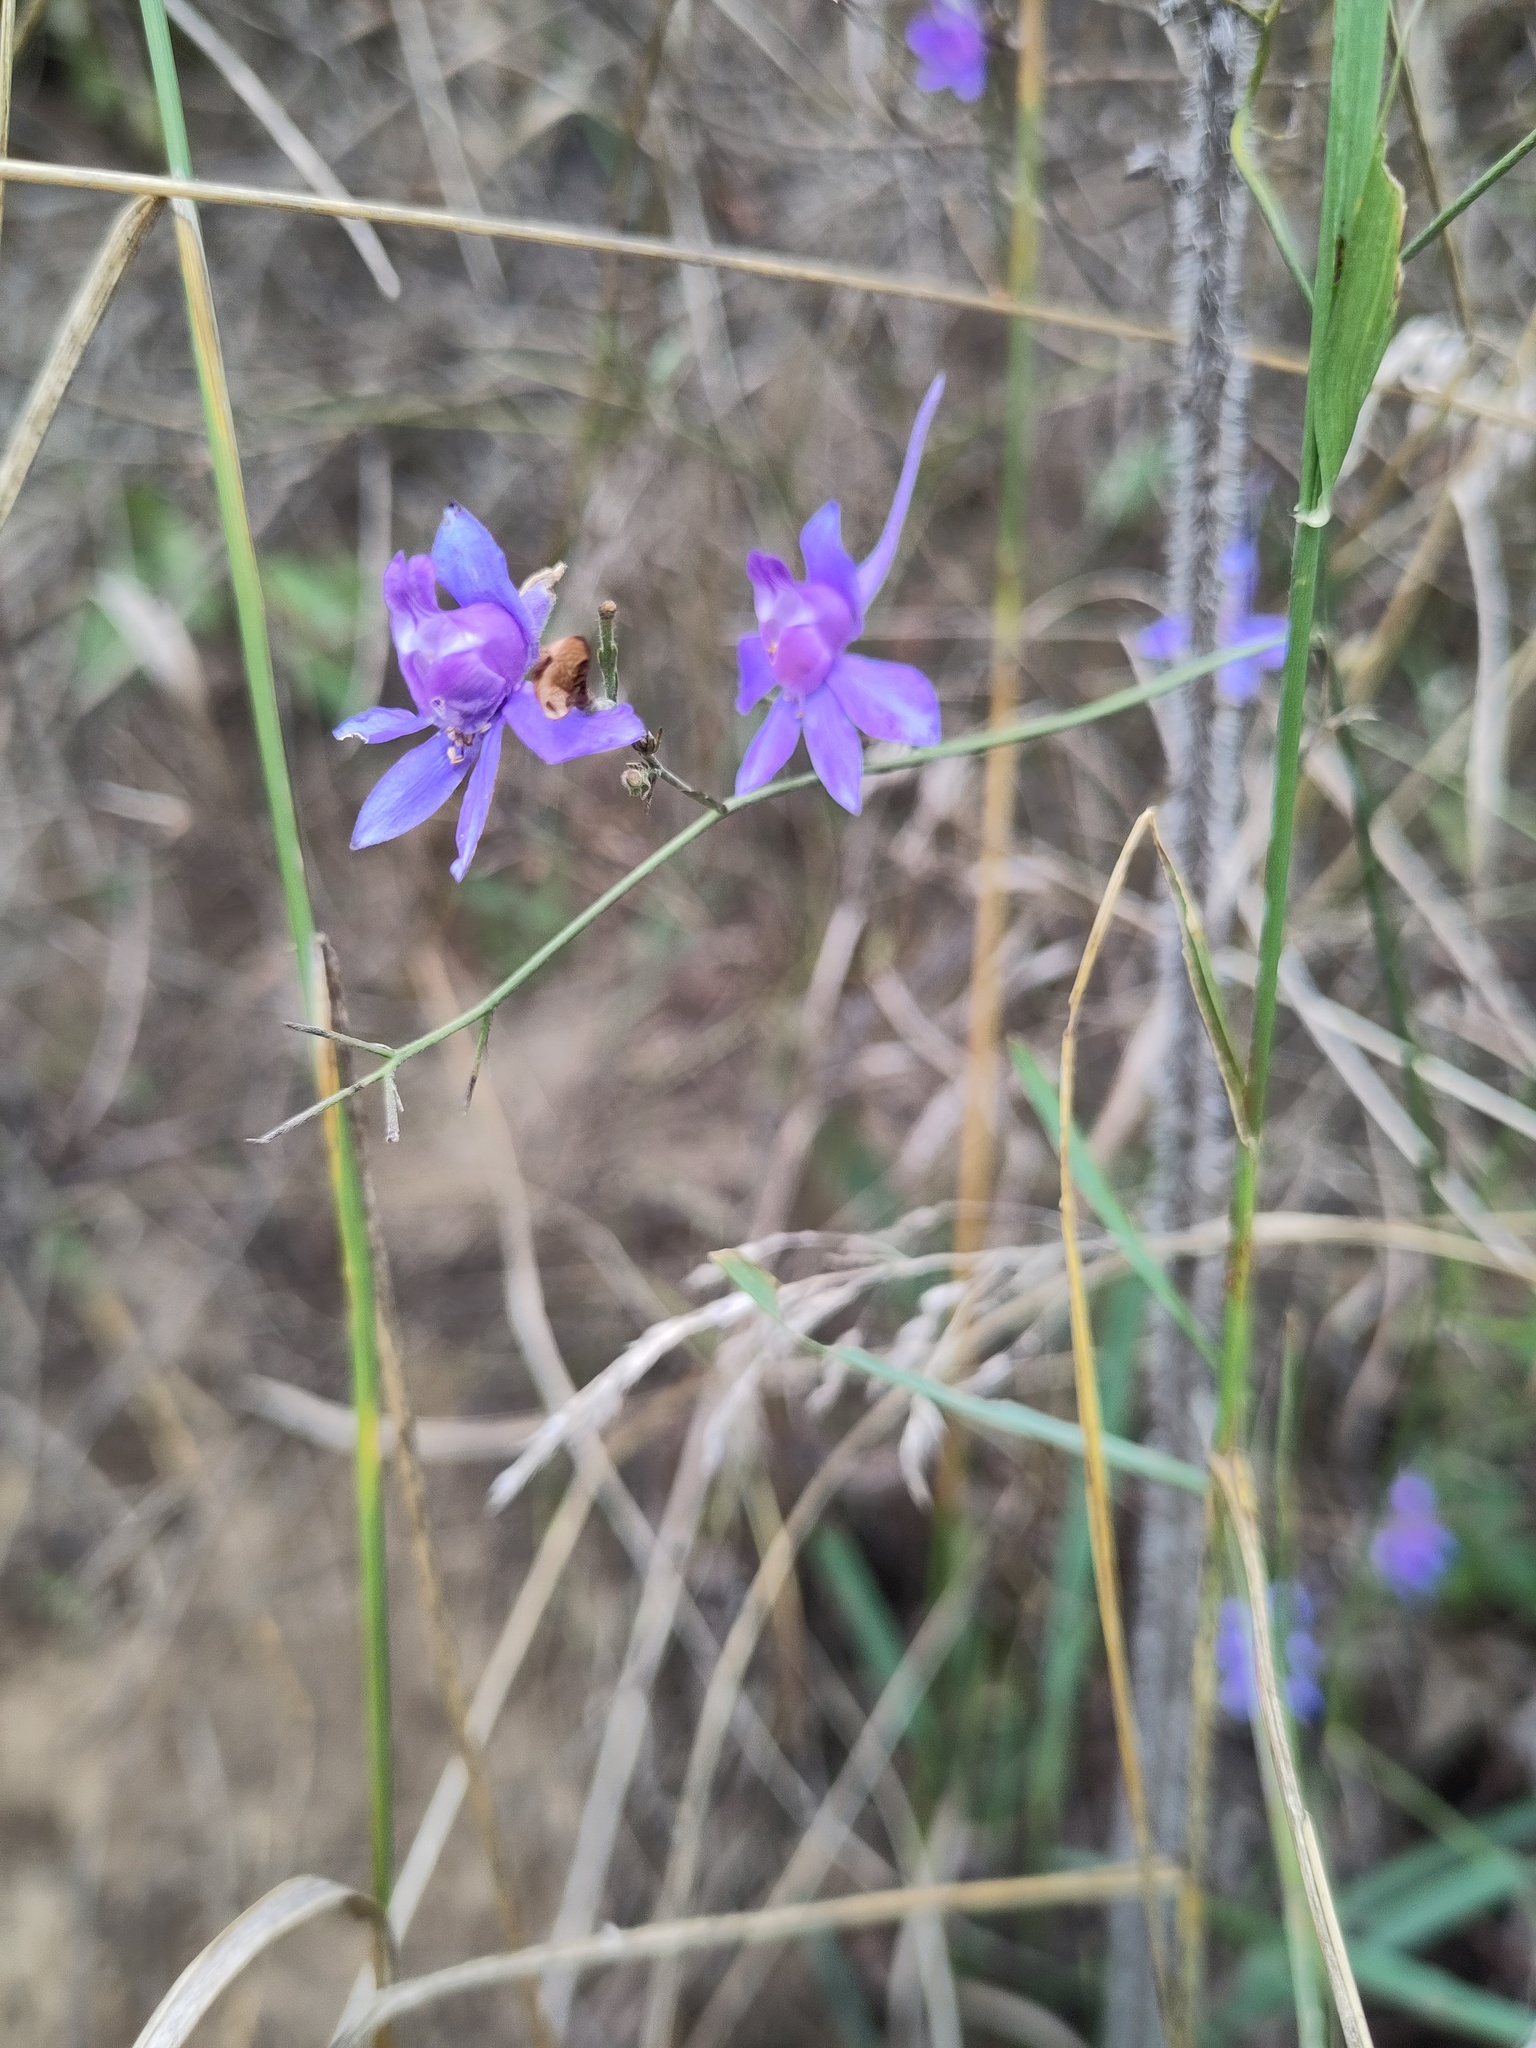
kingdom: Plantae
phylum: Tracheophyta
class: Magnoliopsida
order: Ranunculales
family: Ranunculaceae
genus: Delphinium
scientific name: Delphinium consolida
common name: Branching larkspur
